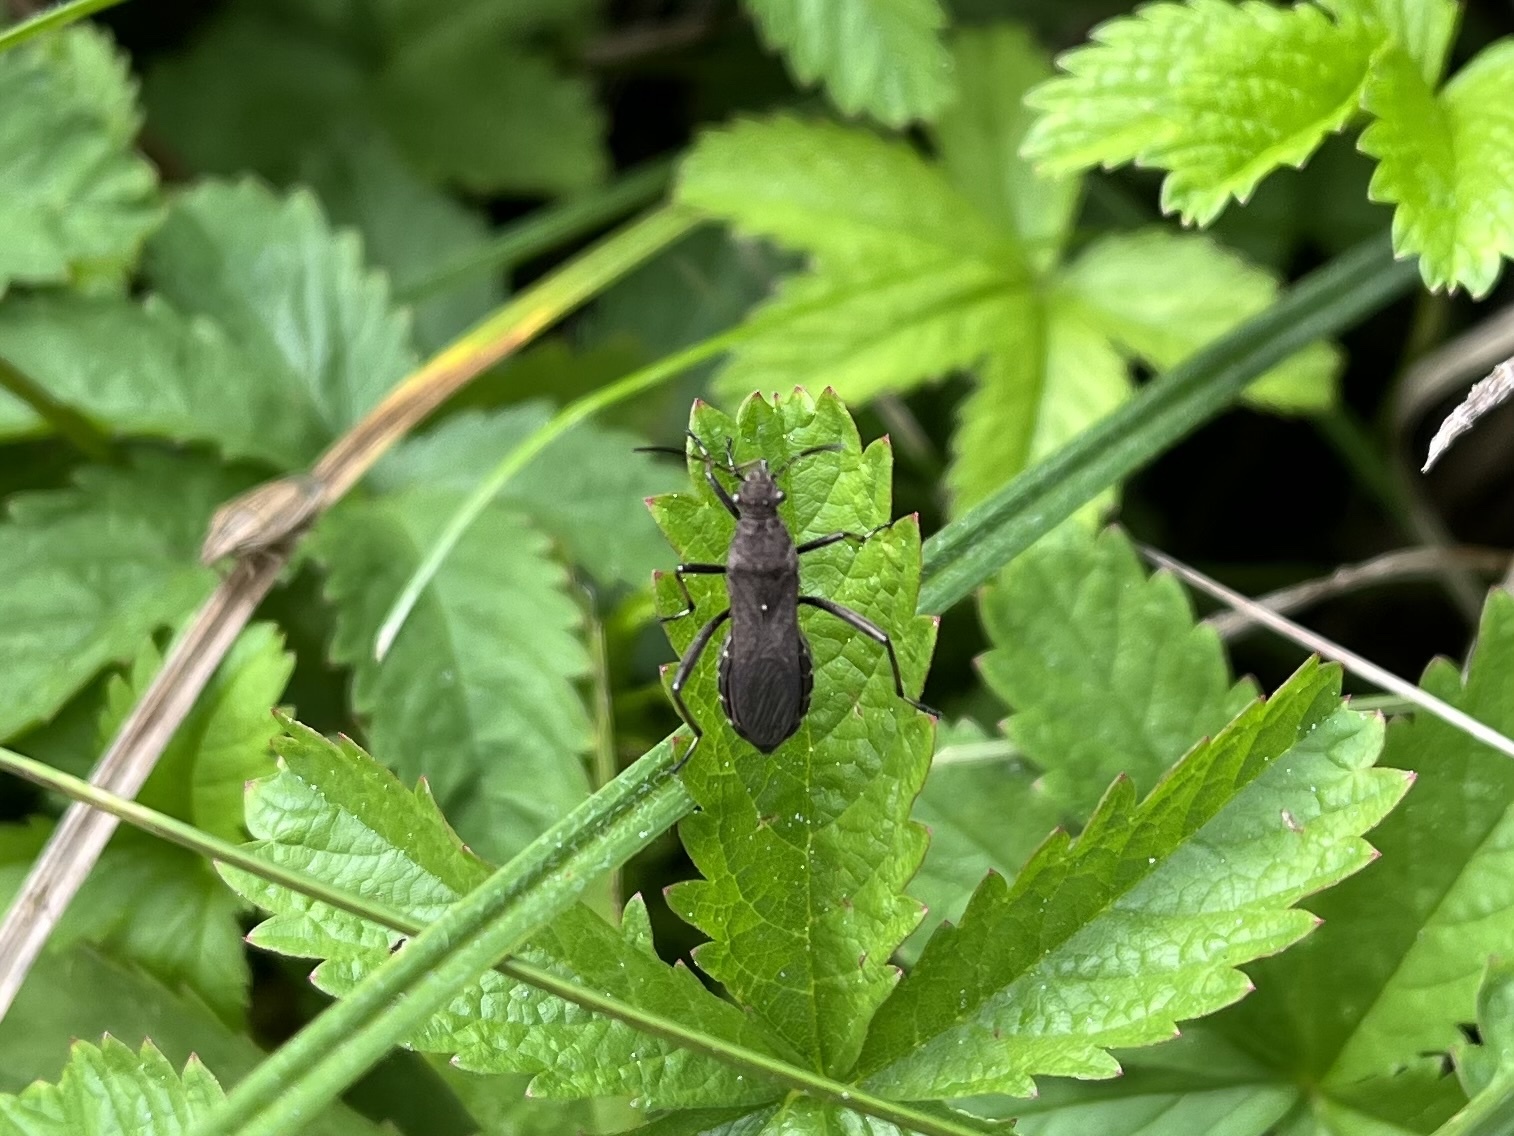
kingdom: Animalia
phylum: Arthropoda
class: Insecta
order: Hemiptera
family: Alydidae
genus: Alydus
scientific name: Alydus calcaratus
